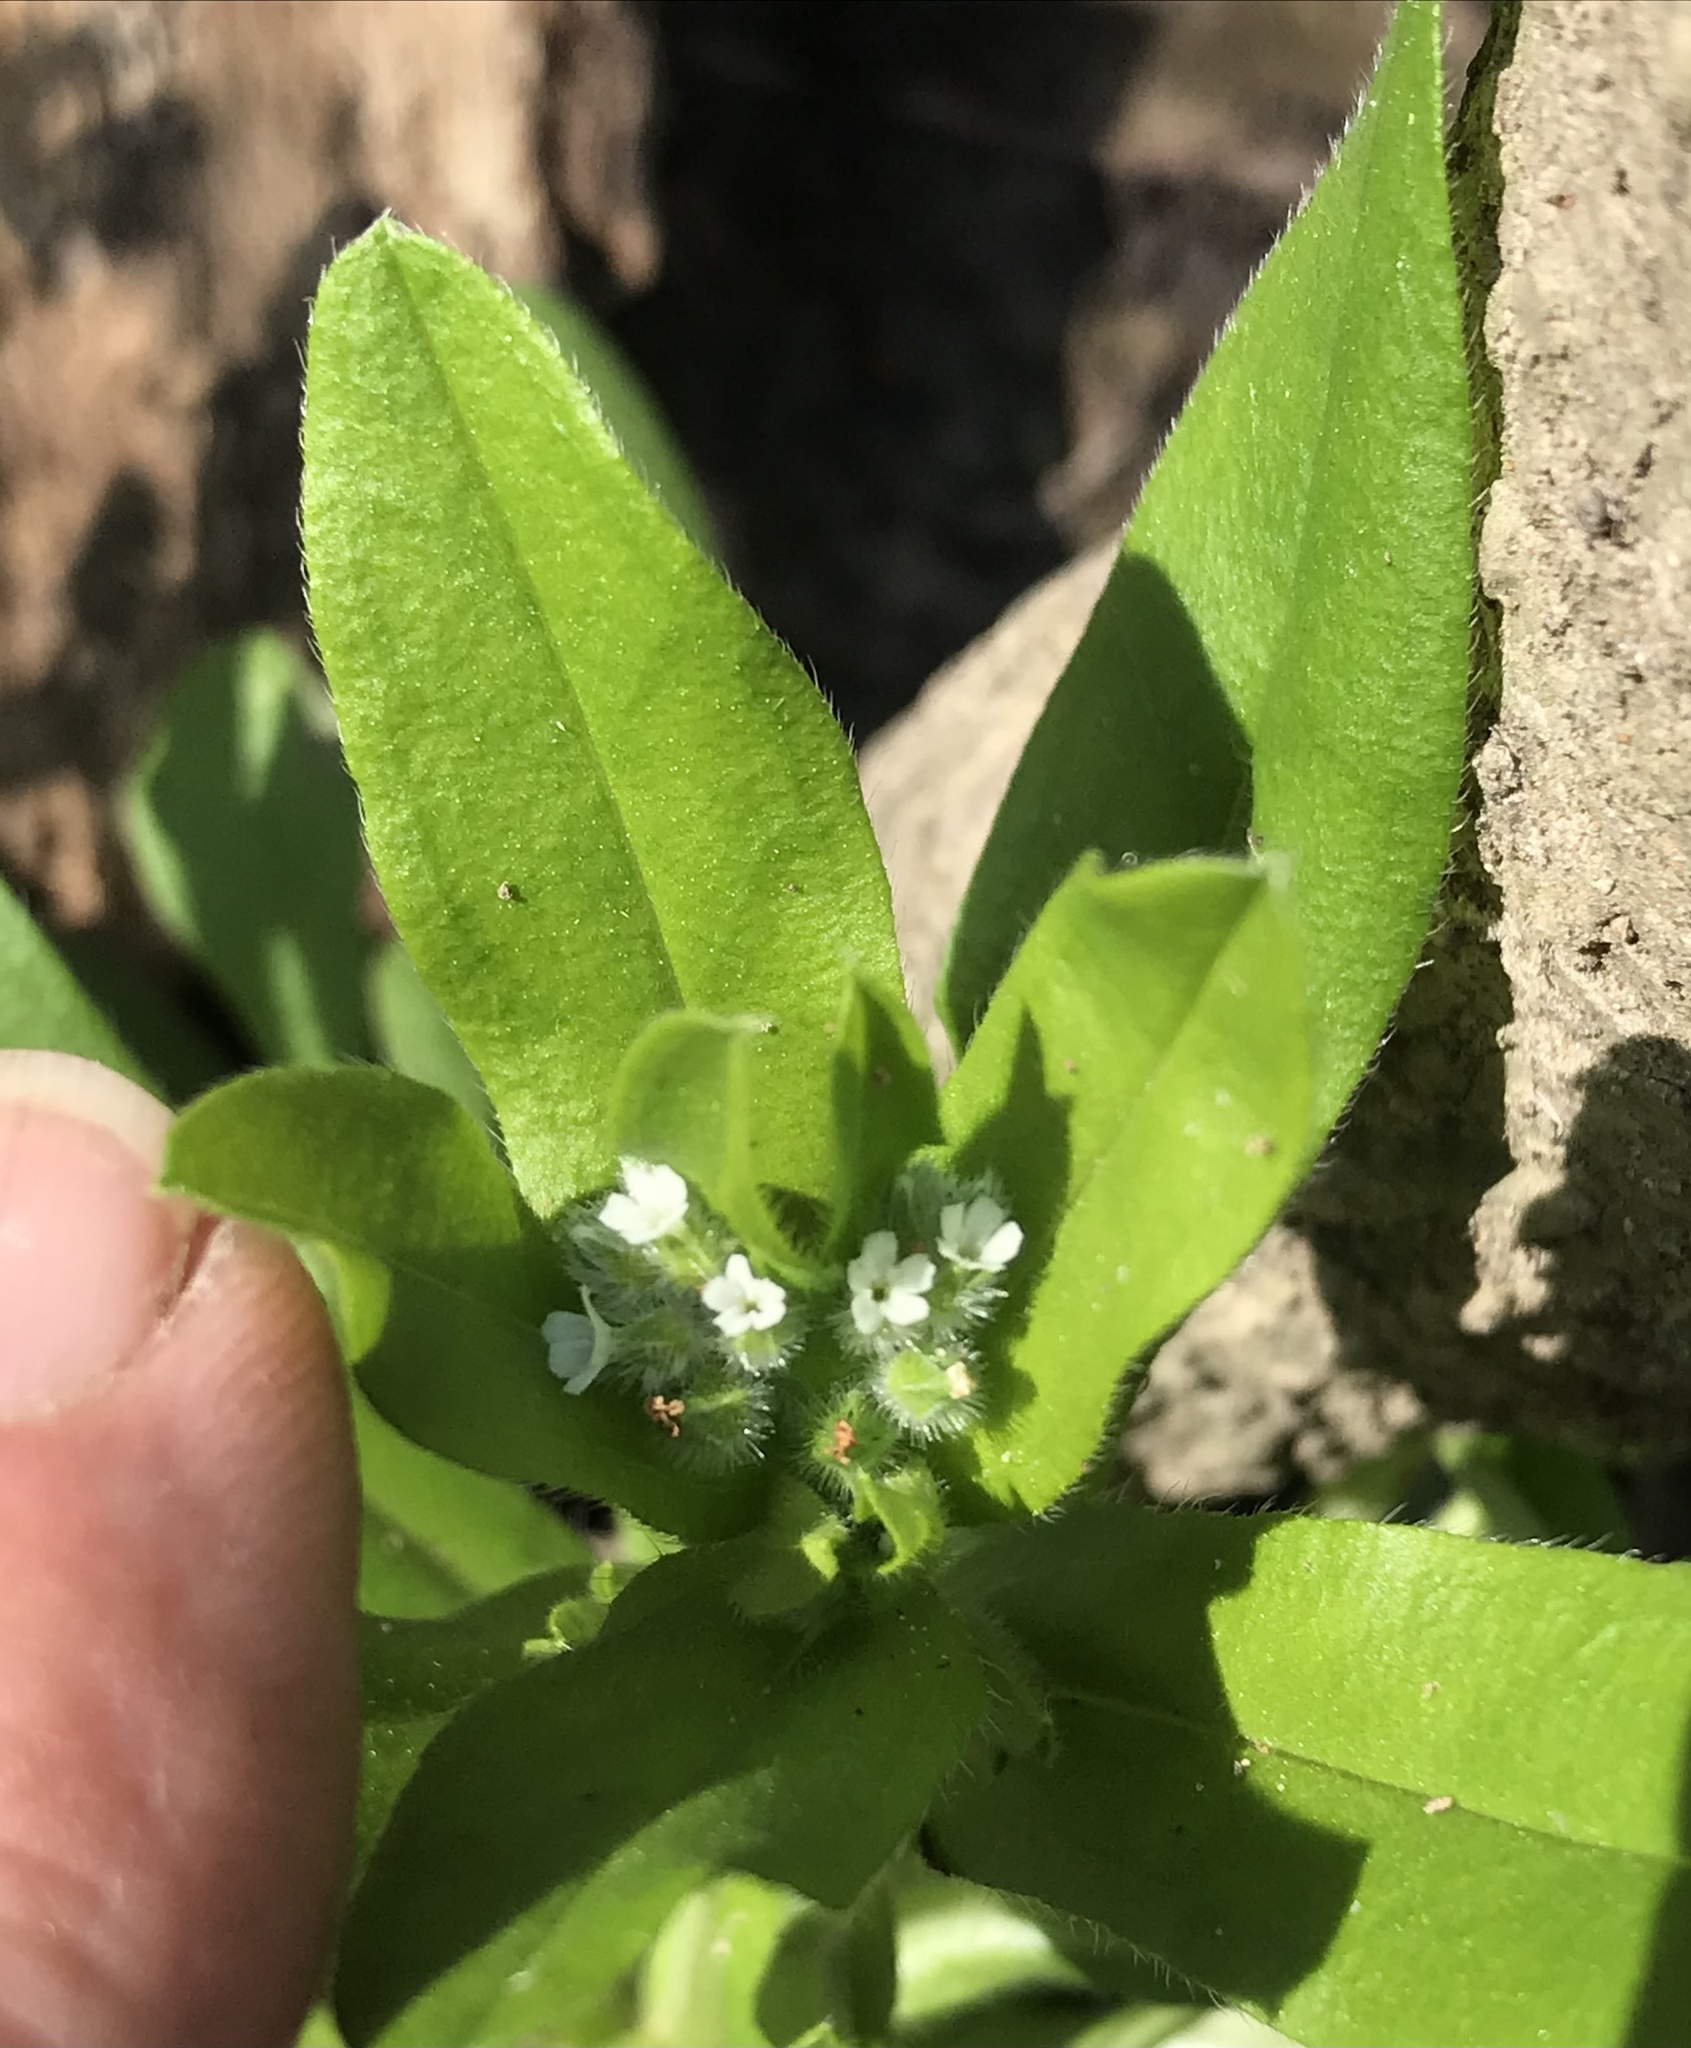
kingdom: Plantae
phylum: Tracheophyta
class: Magnoliopsida
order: Boraginales
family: Boraginaceae
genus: Myosotis
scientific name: Myosotis macrosperma
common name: Large-seed forget-me-not
